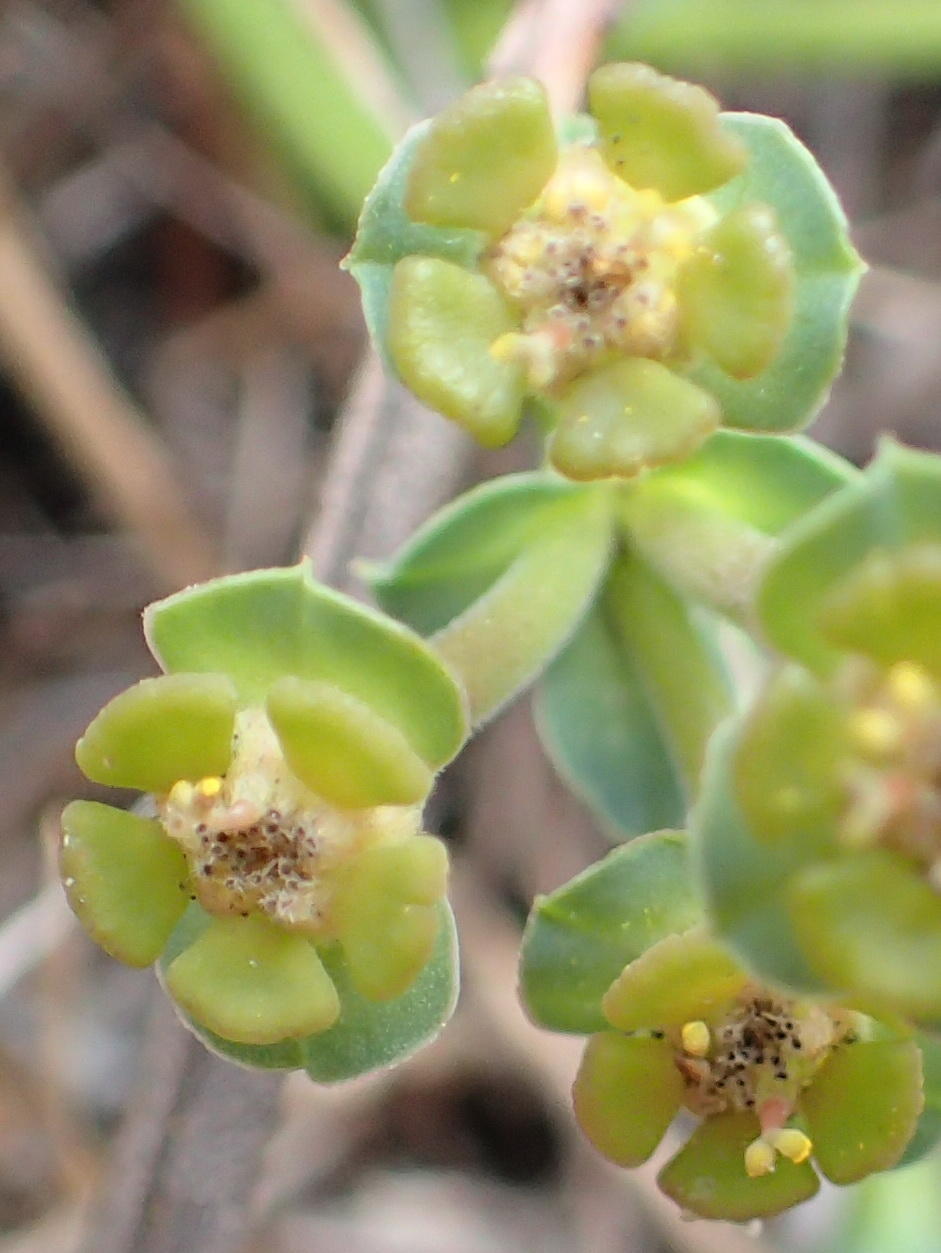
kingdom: Plantae
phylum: Tracheophyta
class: Magnoliopsida
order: Malpighiales
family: Euphorbiaceae
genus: Euphorbia
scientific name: Euphorbia silenifolia
